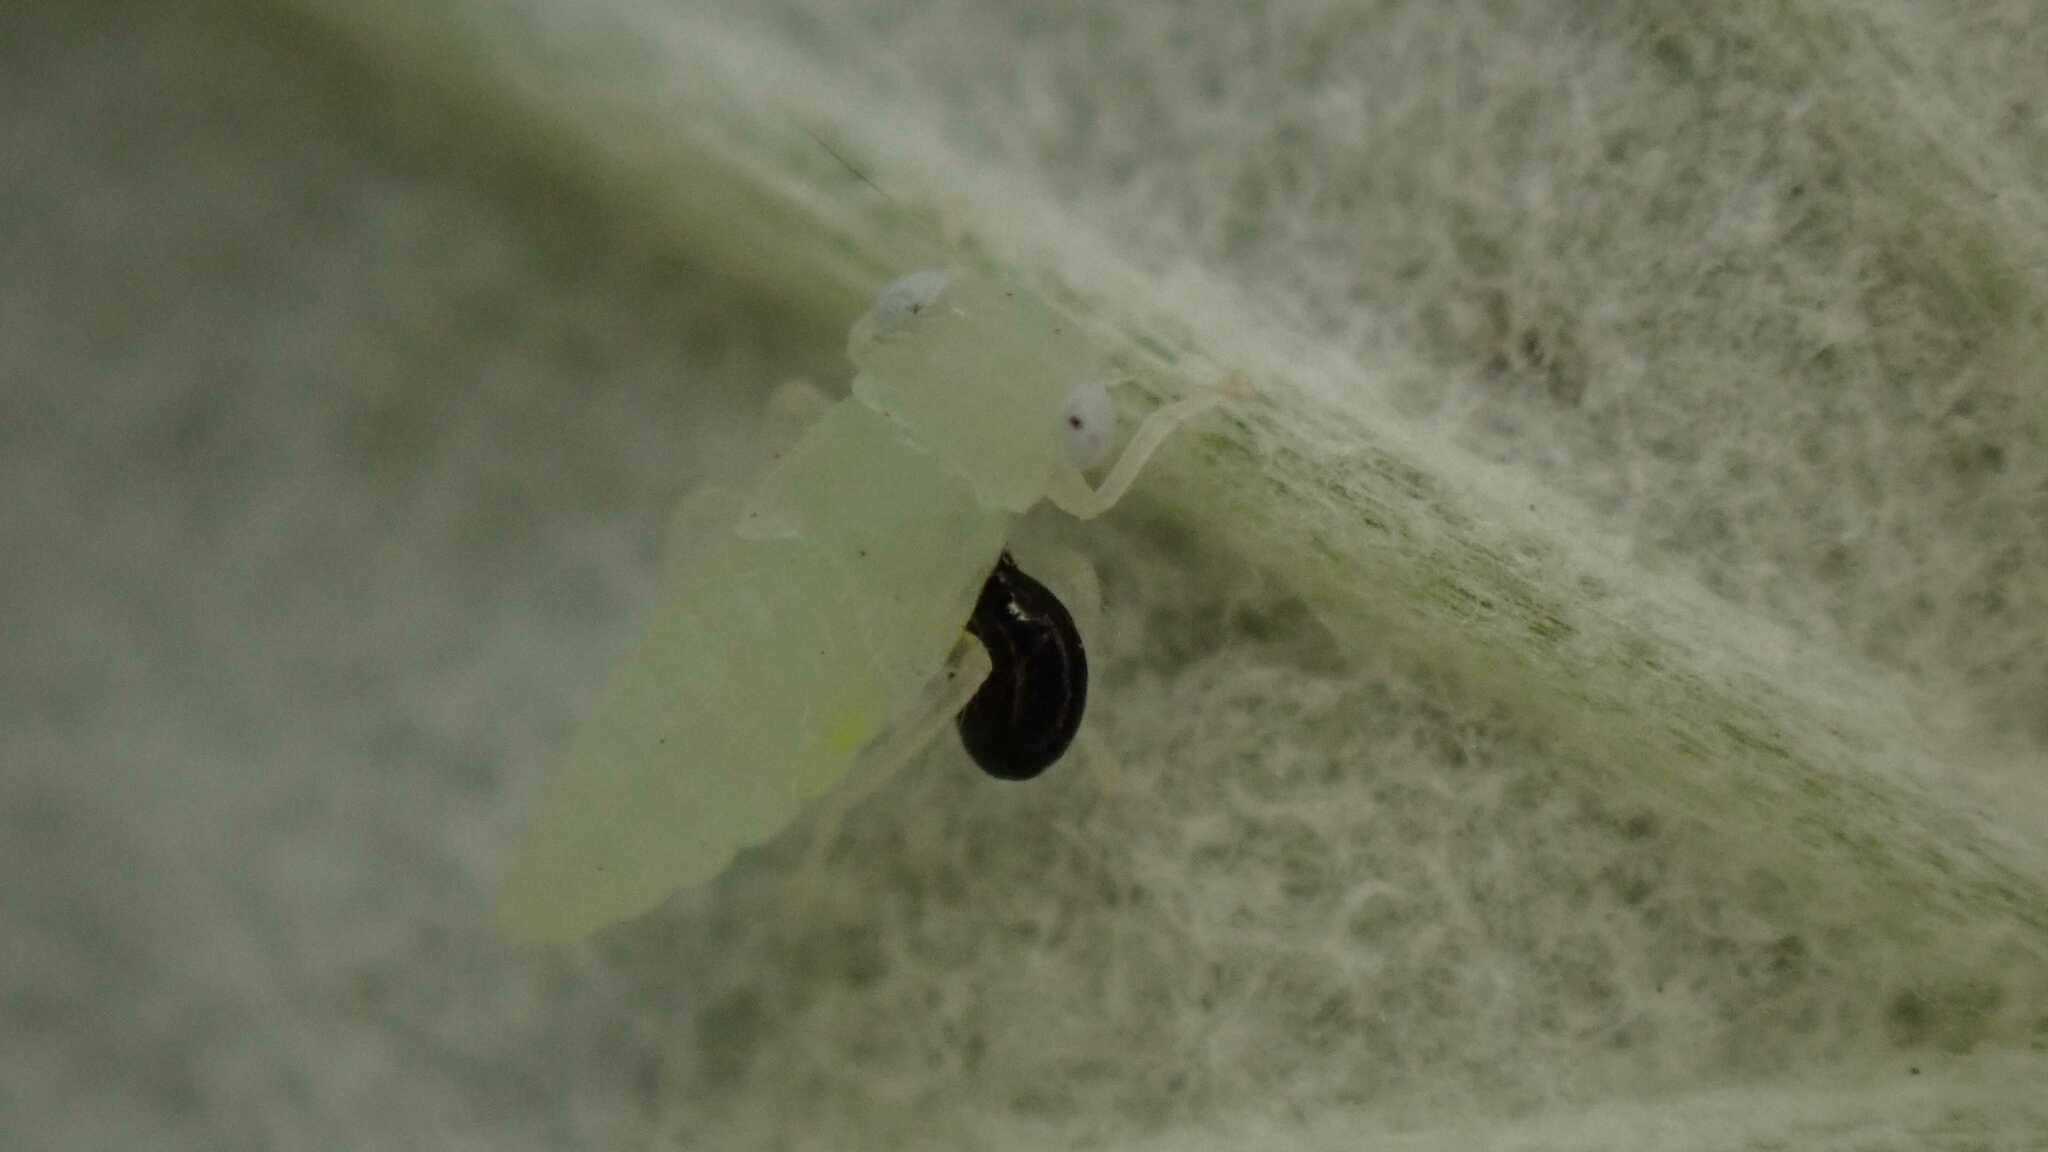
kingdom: Animalia
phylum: Arthropoda
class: Insecta
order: Hemiptera
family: Cicadellidae
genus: Populicerus
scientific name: Populicerus albicans
